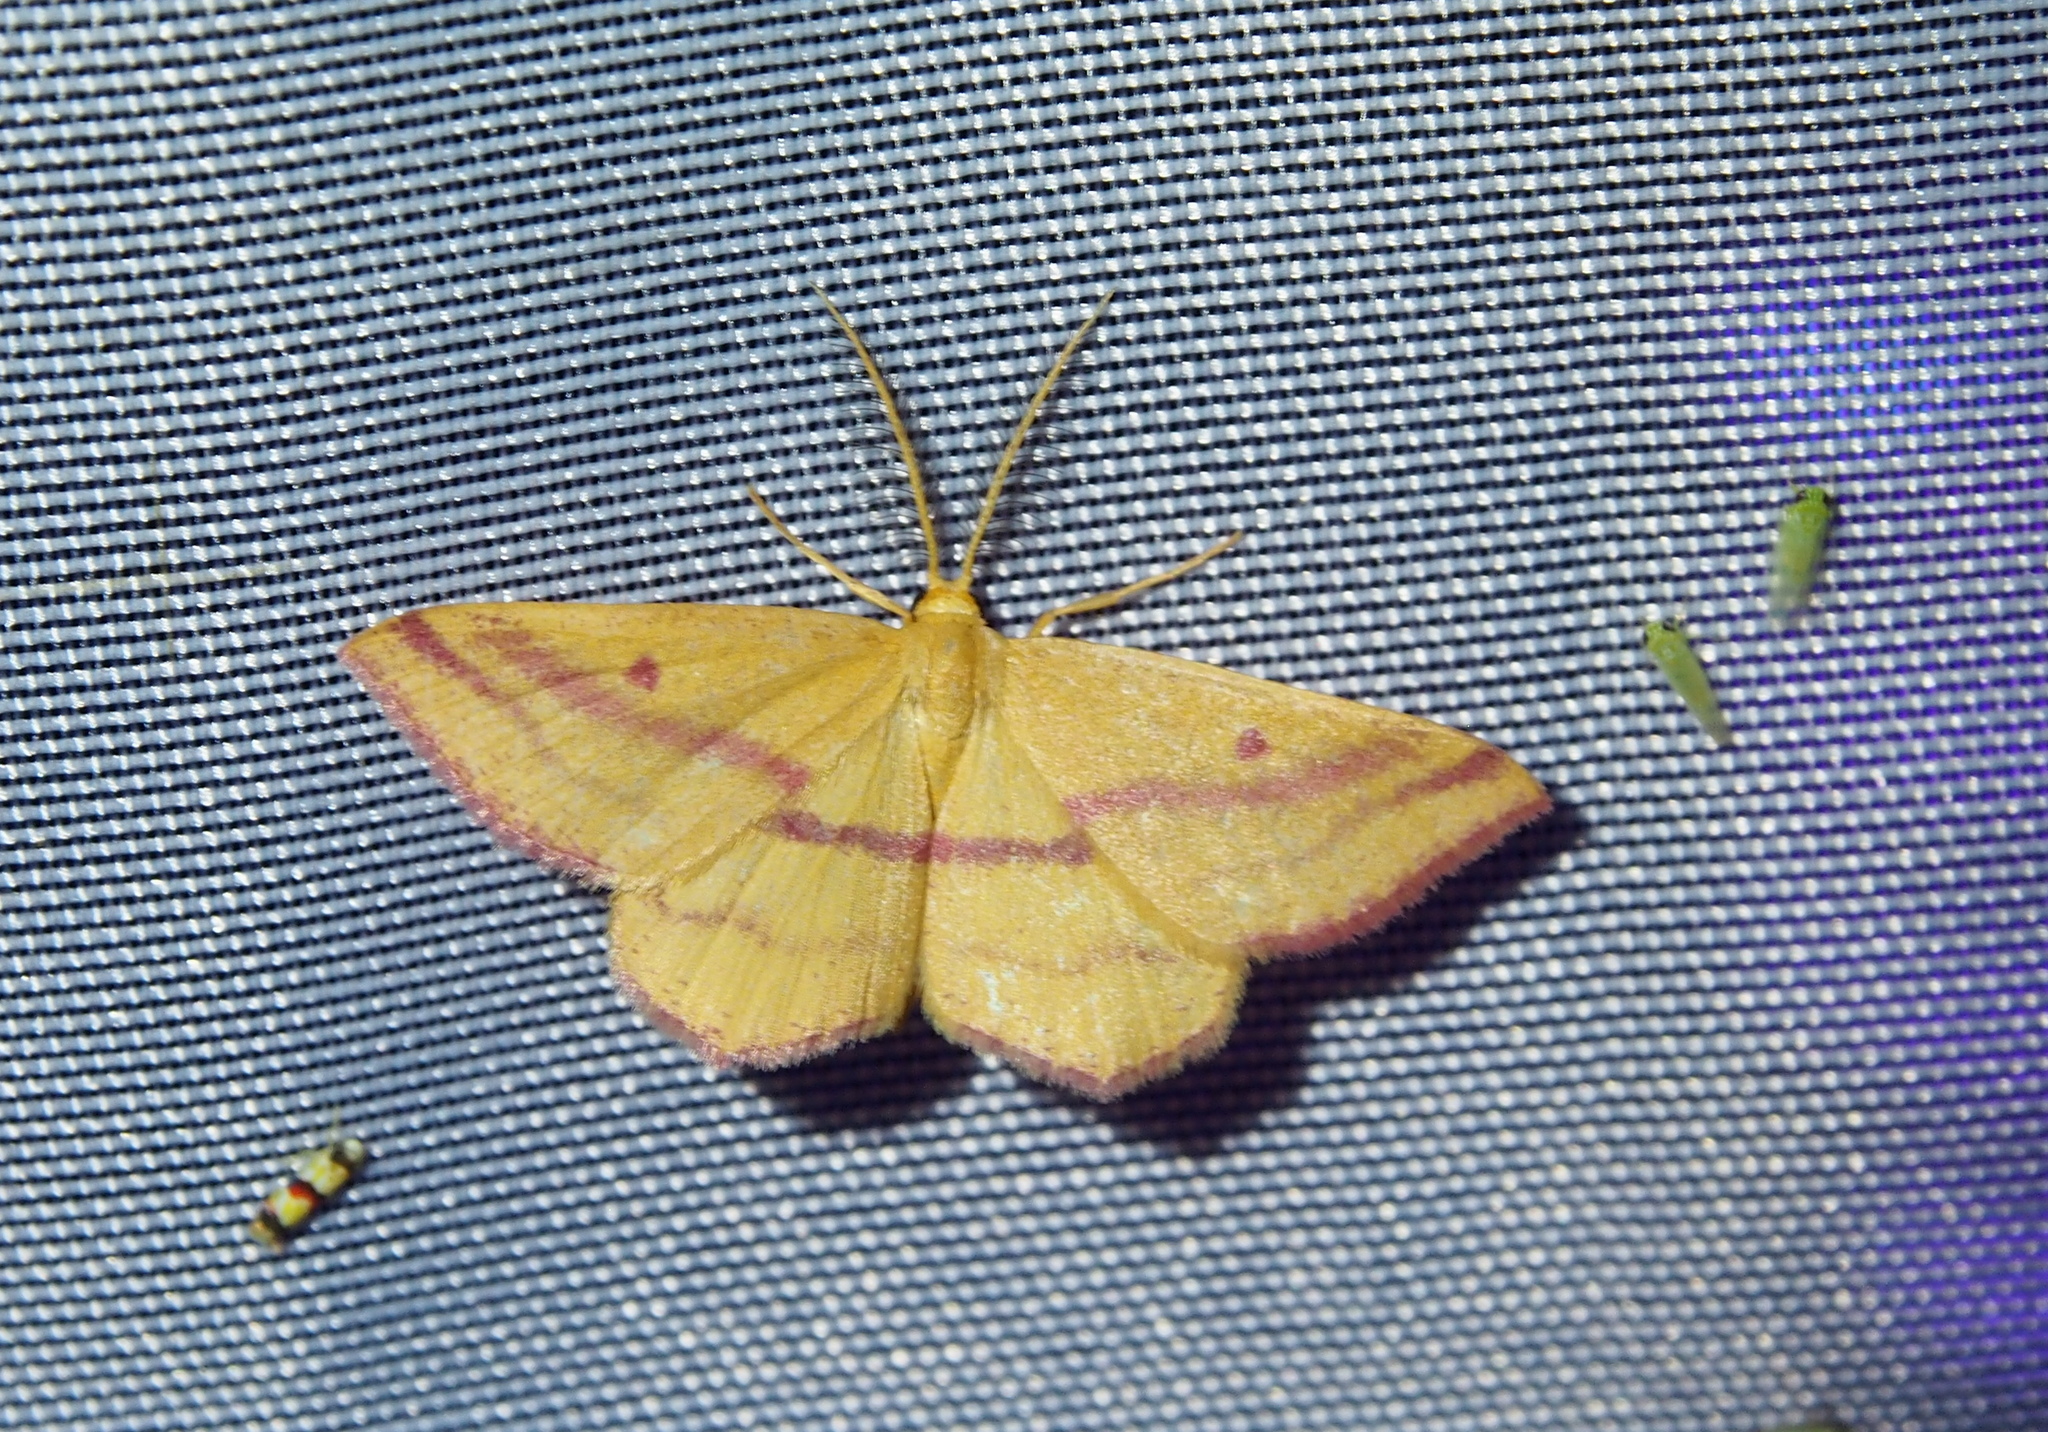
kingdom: Animalia
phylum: Arthropoda
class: Insecta
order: Lepidoptera
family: Geometridae
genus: Haematopis
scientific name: Haematopis grataria
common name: Chickweed geometer
